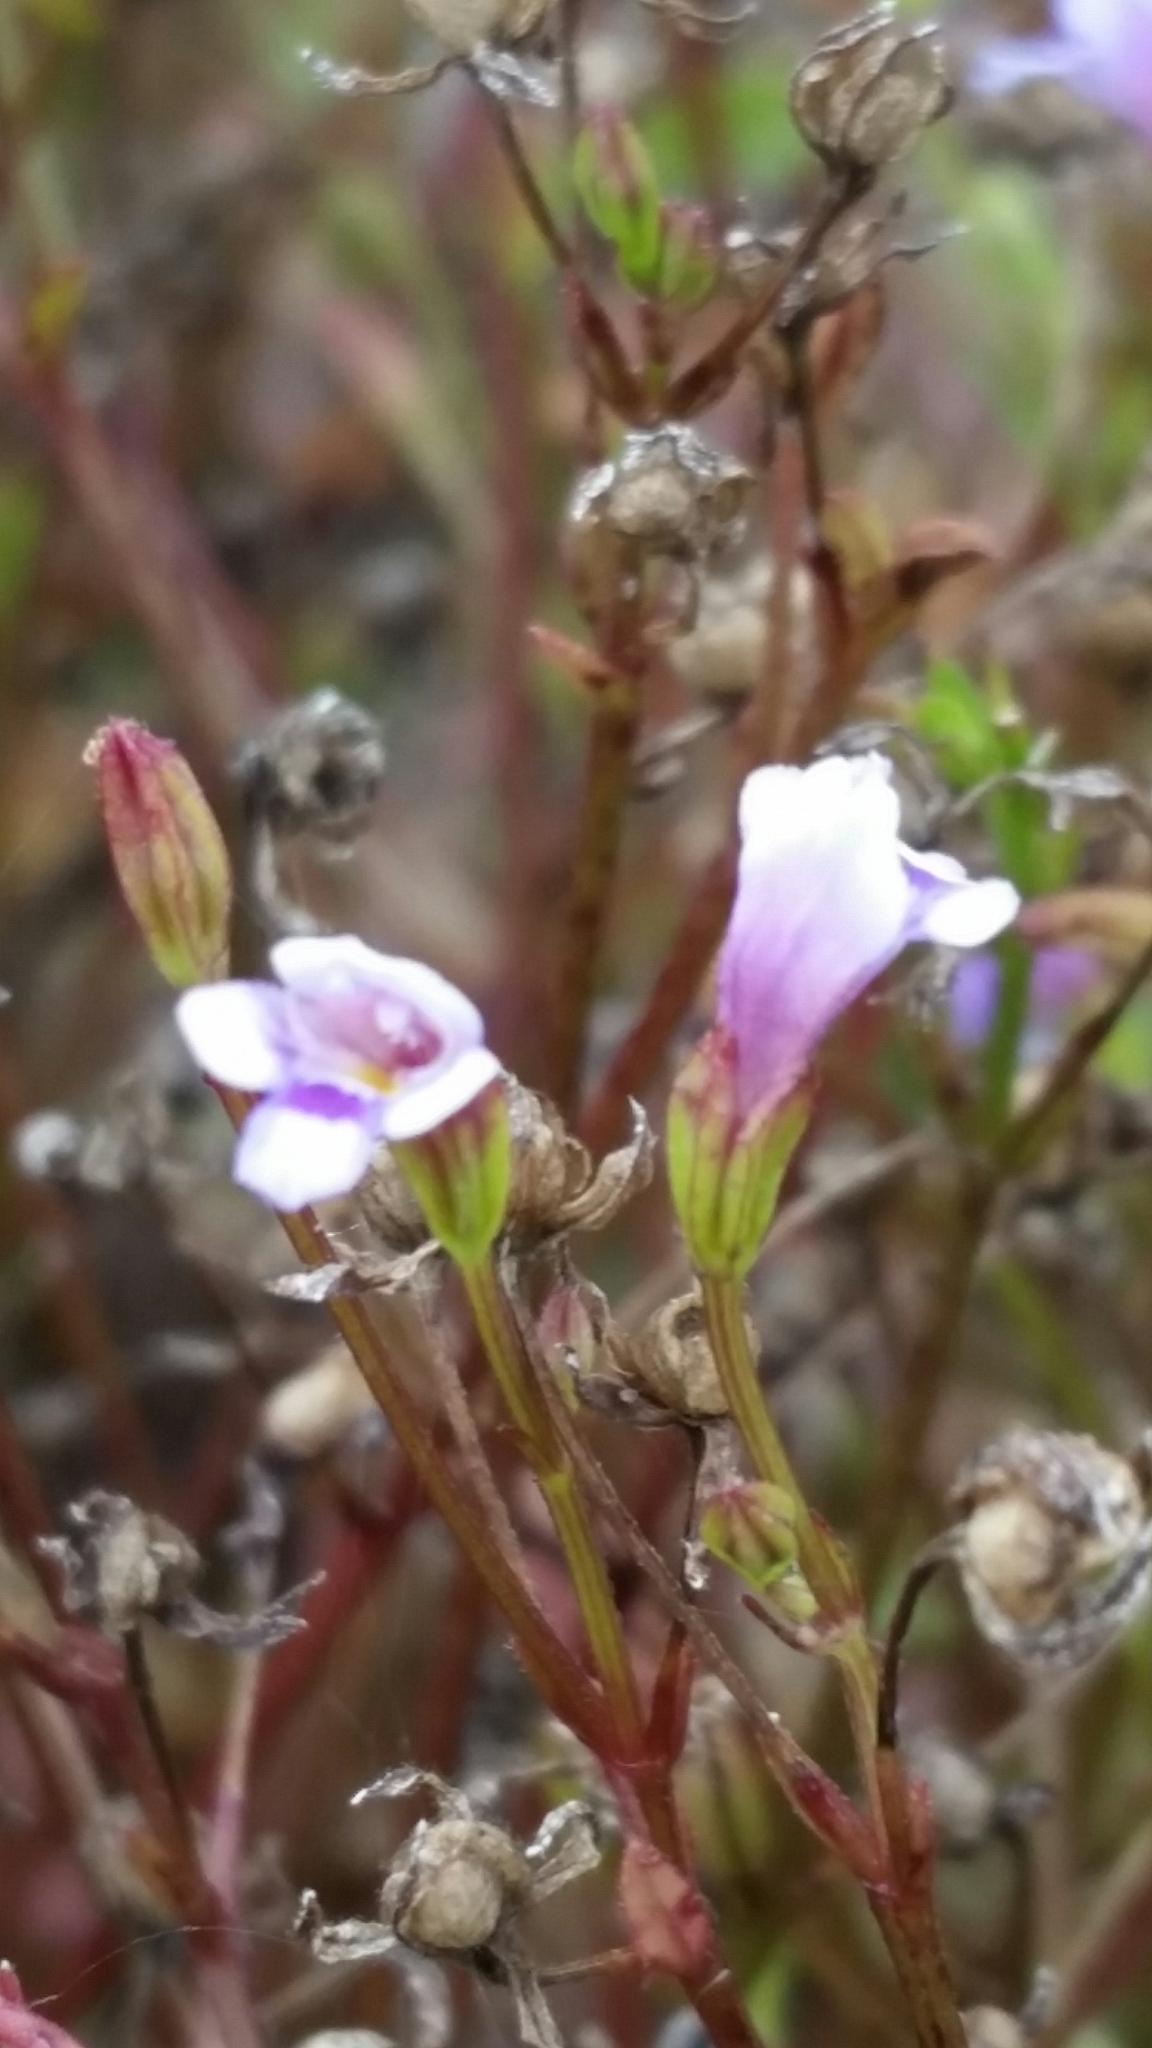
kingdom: Plantae
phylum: Tracheophyta
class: Magnoliopsida
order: Lamiales
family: Linderniaceae
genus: Torenia
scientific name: Torenia crustacea
